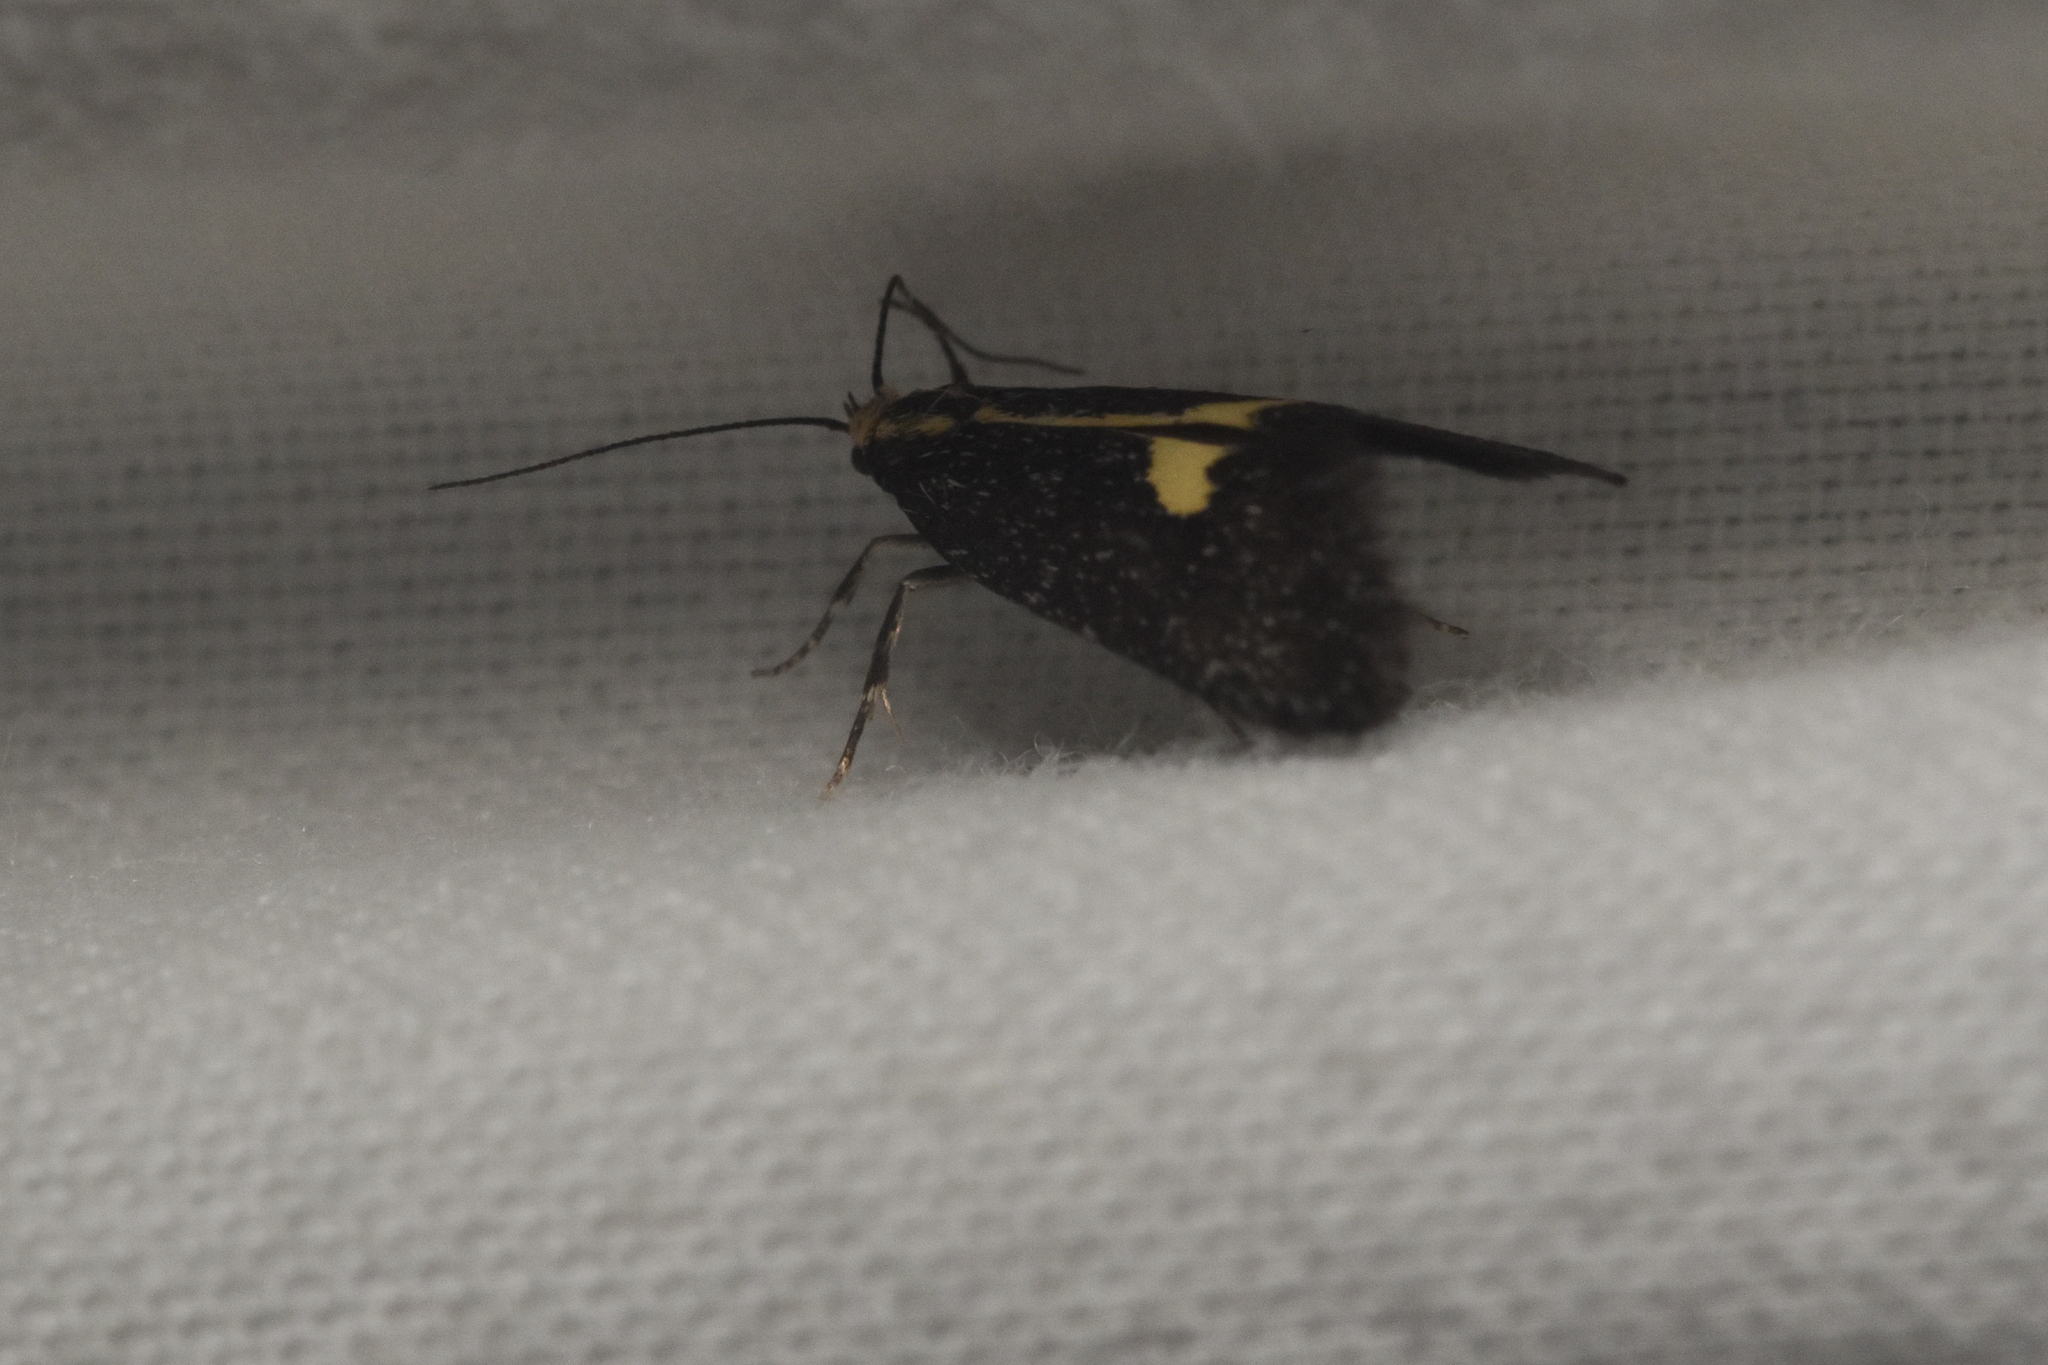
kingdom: Animalia
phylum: Arthropoda
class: Insecta
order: Lepidoptera
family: Oecophoridae
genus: Polix
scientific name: Polix coloradella
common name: Skunk moth
